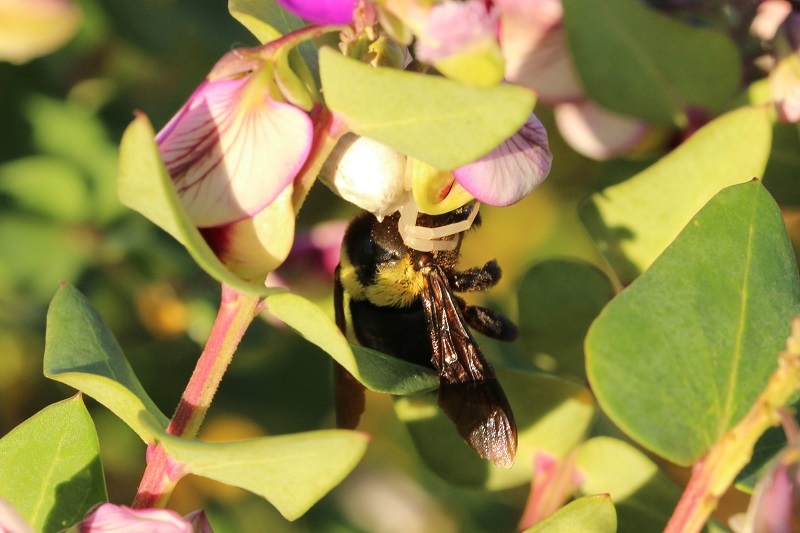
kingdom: Animalia
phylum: Arthropoda
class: Insecta
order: Hymenoptera
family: Apidae
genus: Xylocopa
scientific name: Xylocopa flavicollis
